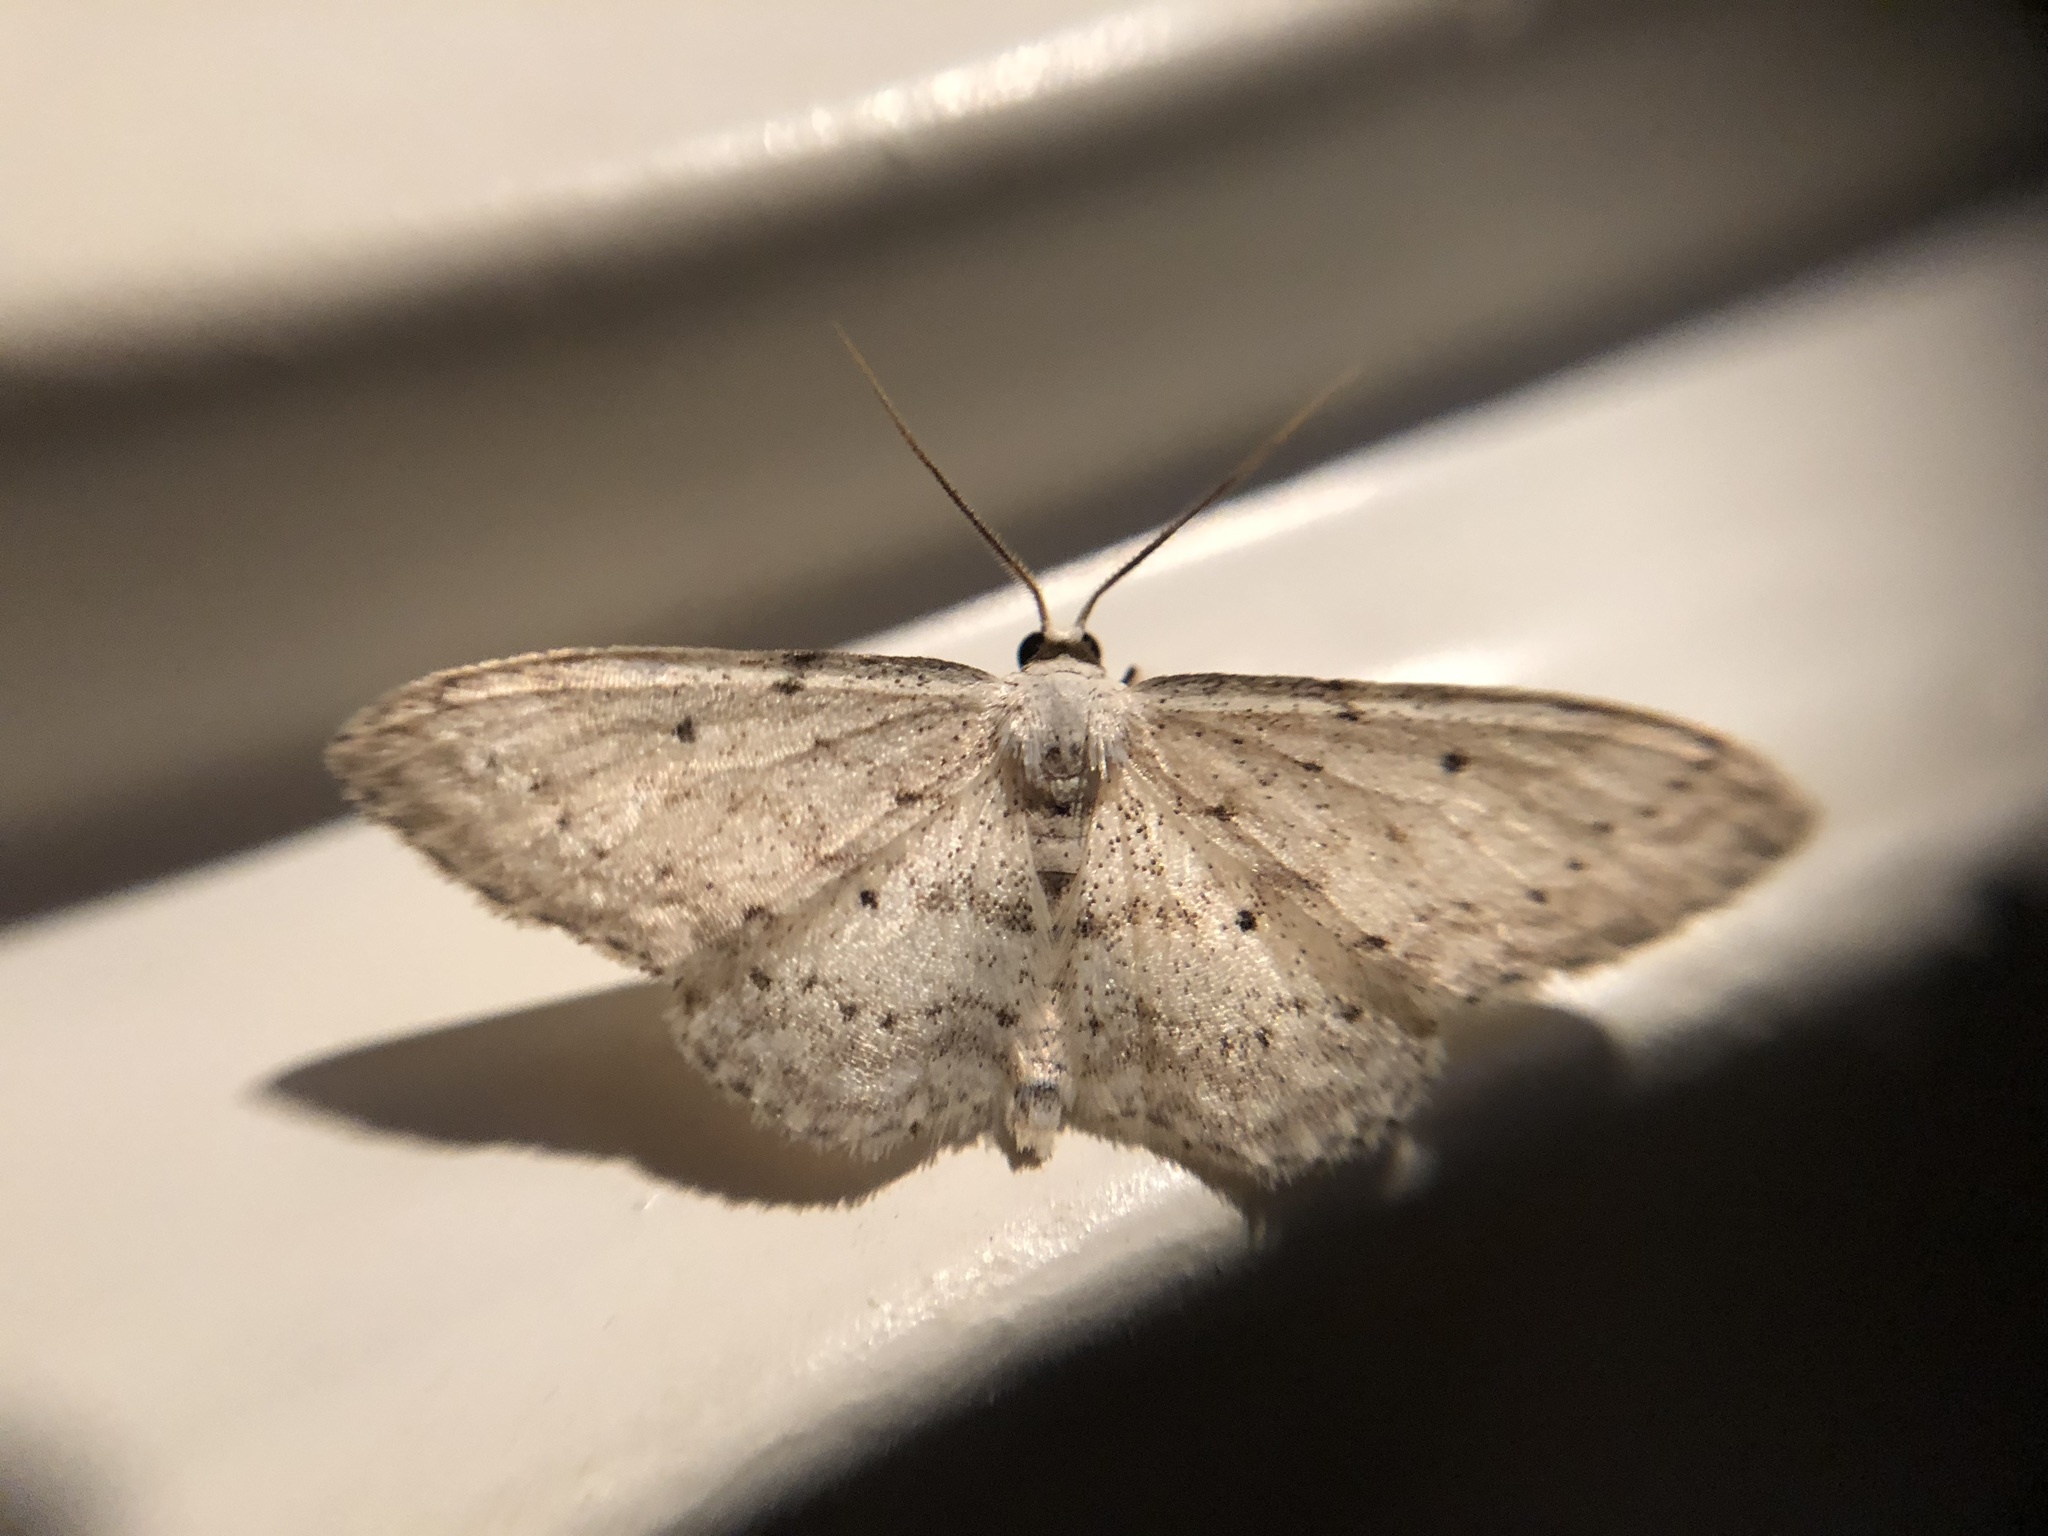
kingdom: Animalia
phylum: Arthropoda
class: Insecta
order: Lepidoptera
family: Geometridae
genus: Idaea
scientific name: Idaea seriata
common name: Small dusty wave
